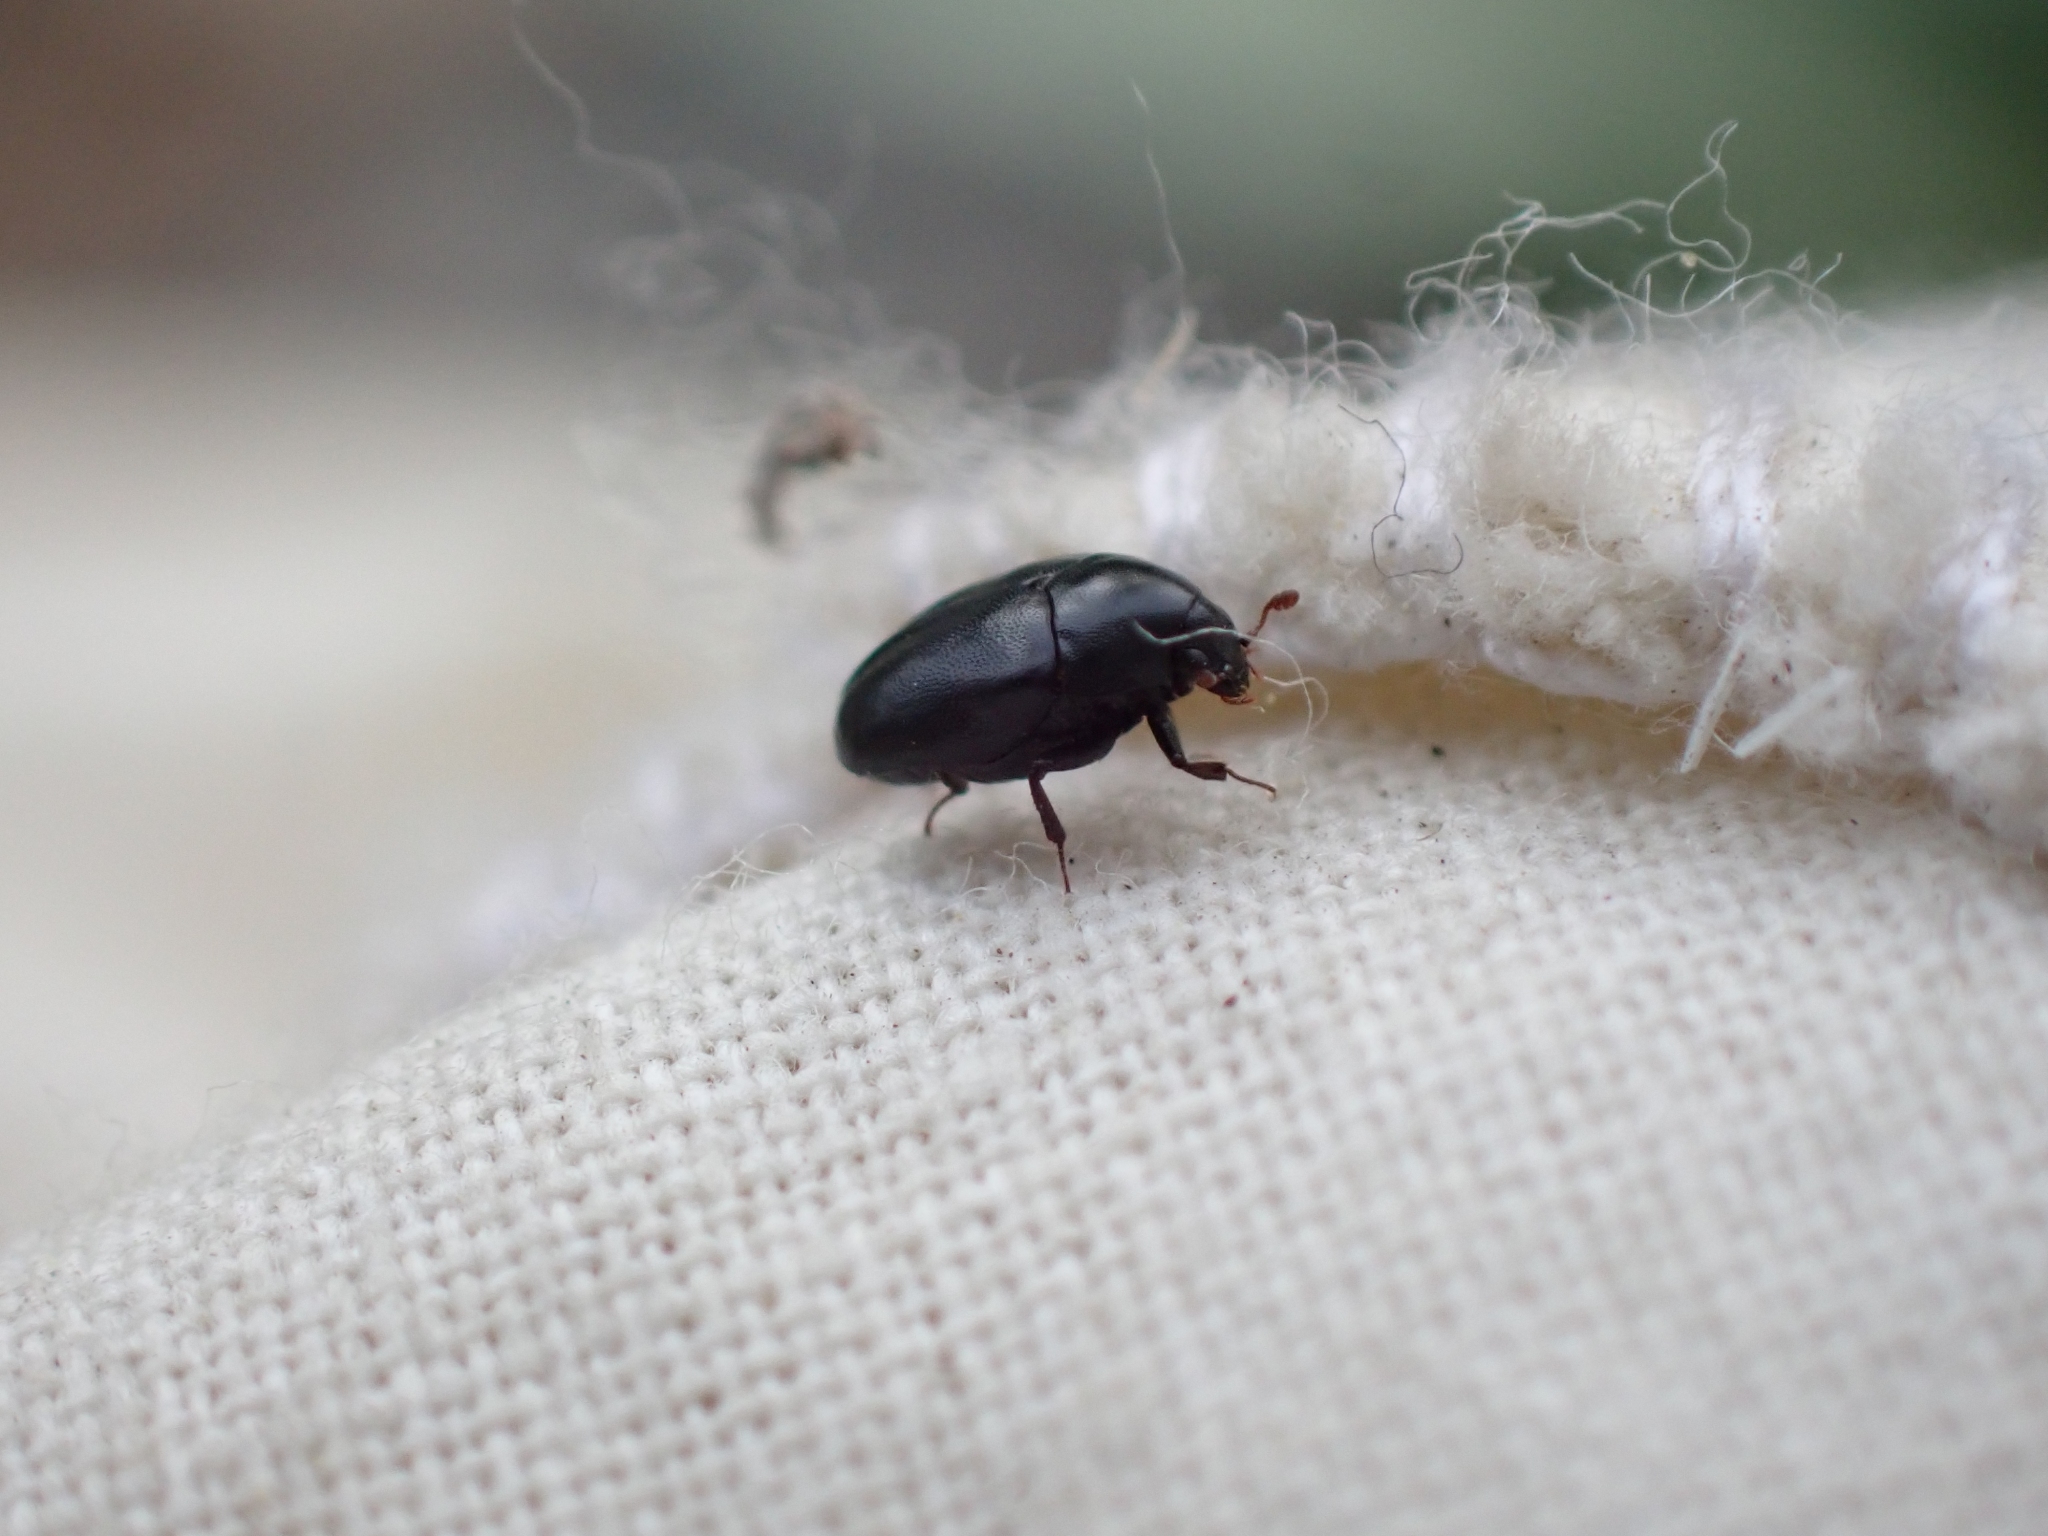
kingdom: Animalia
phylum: Arthropoda
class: Insecta
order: Coleoptera
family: Dermestidae
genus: Orphilus
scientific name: Orphilus subnitidus
